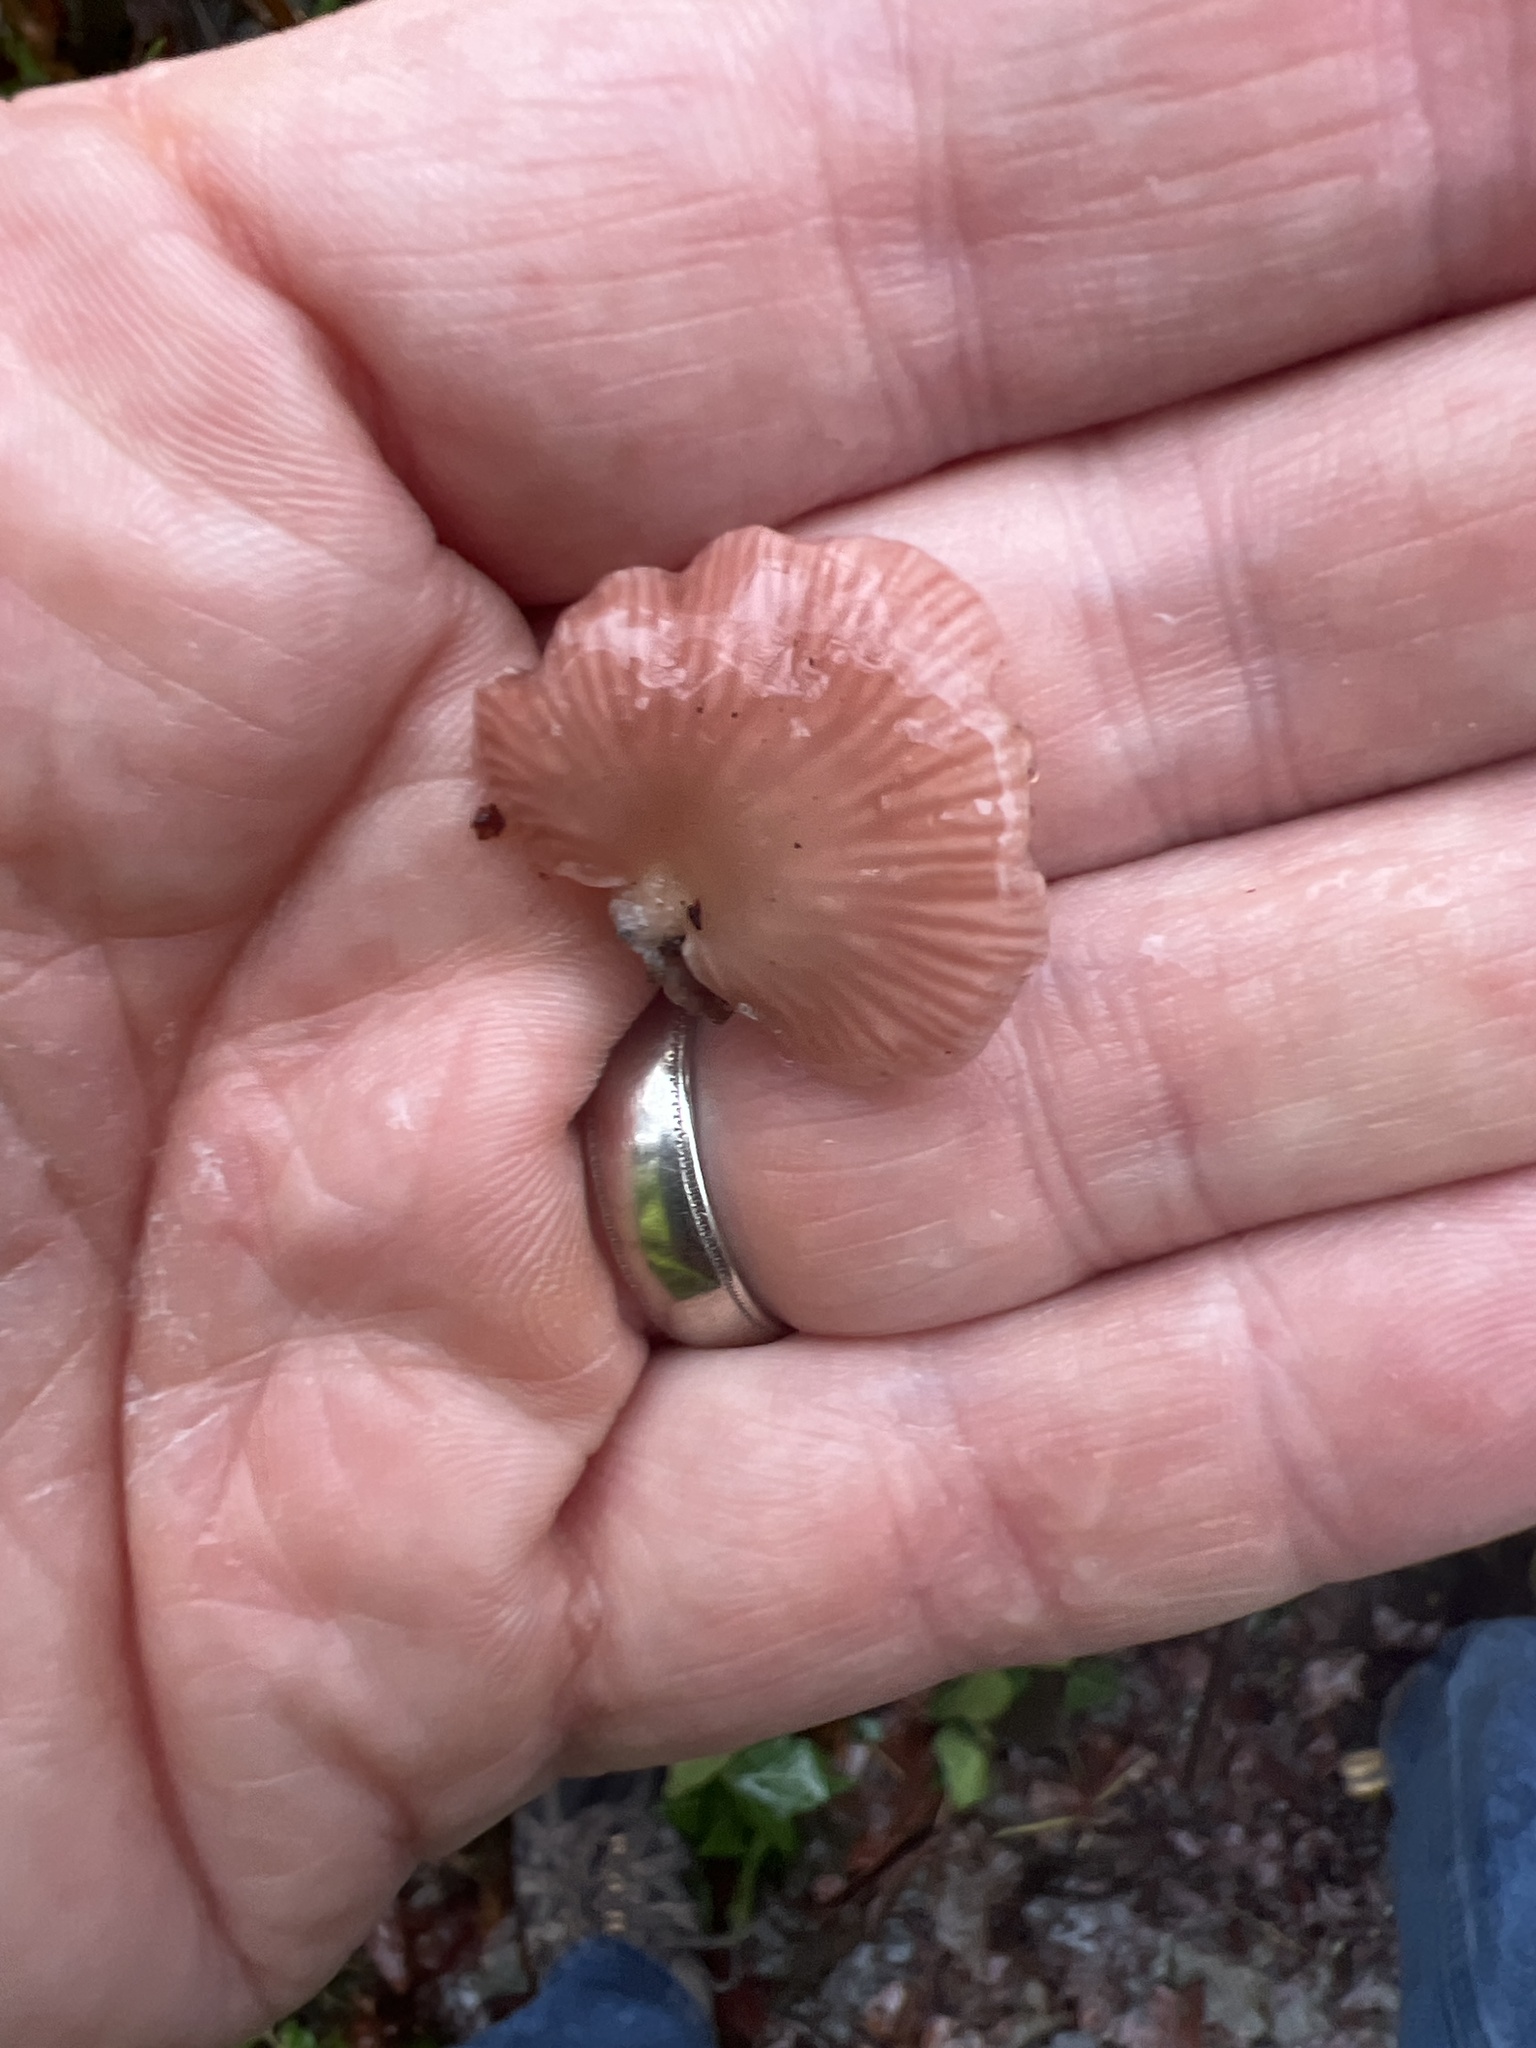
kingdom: Fungi
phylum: Basidiomycota
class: Agaricomycetes
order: Agaricales
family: Mycenaceae
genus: Panellus
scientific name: Panellus longinquus
